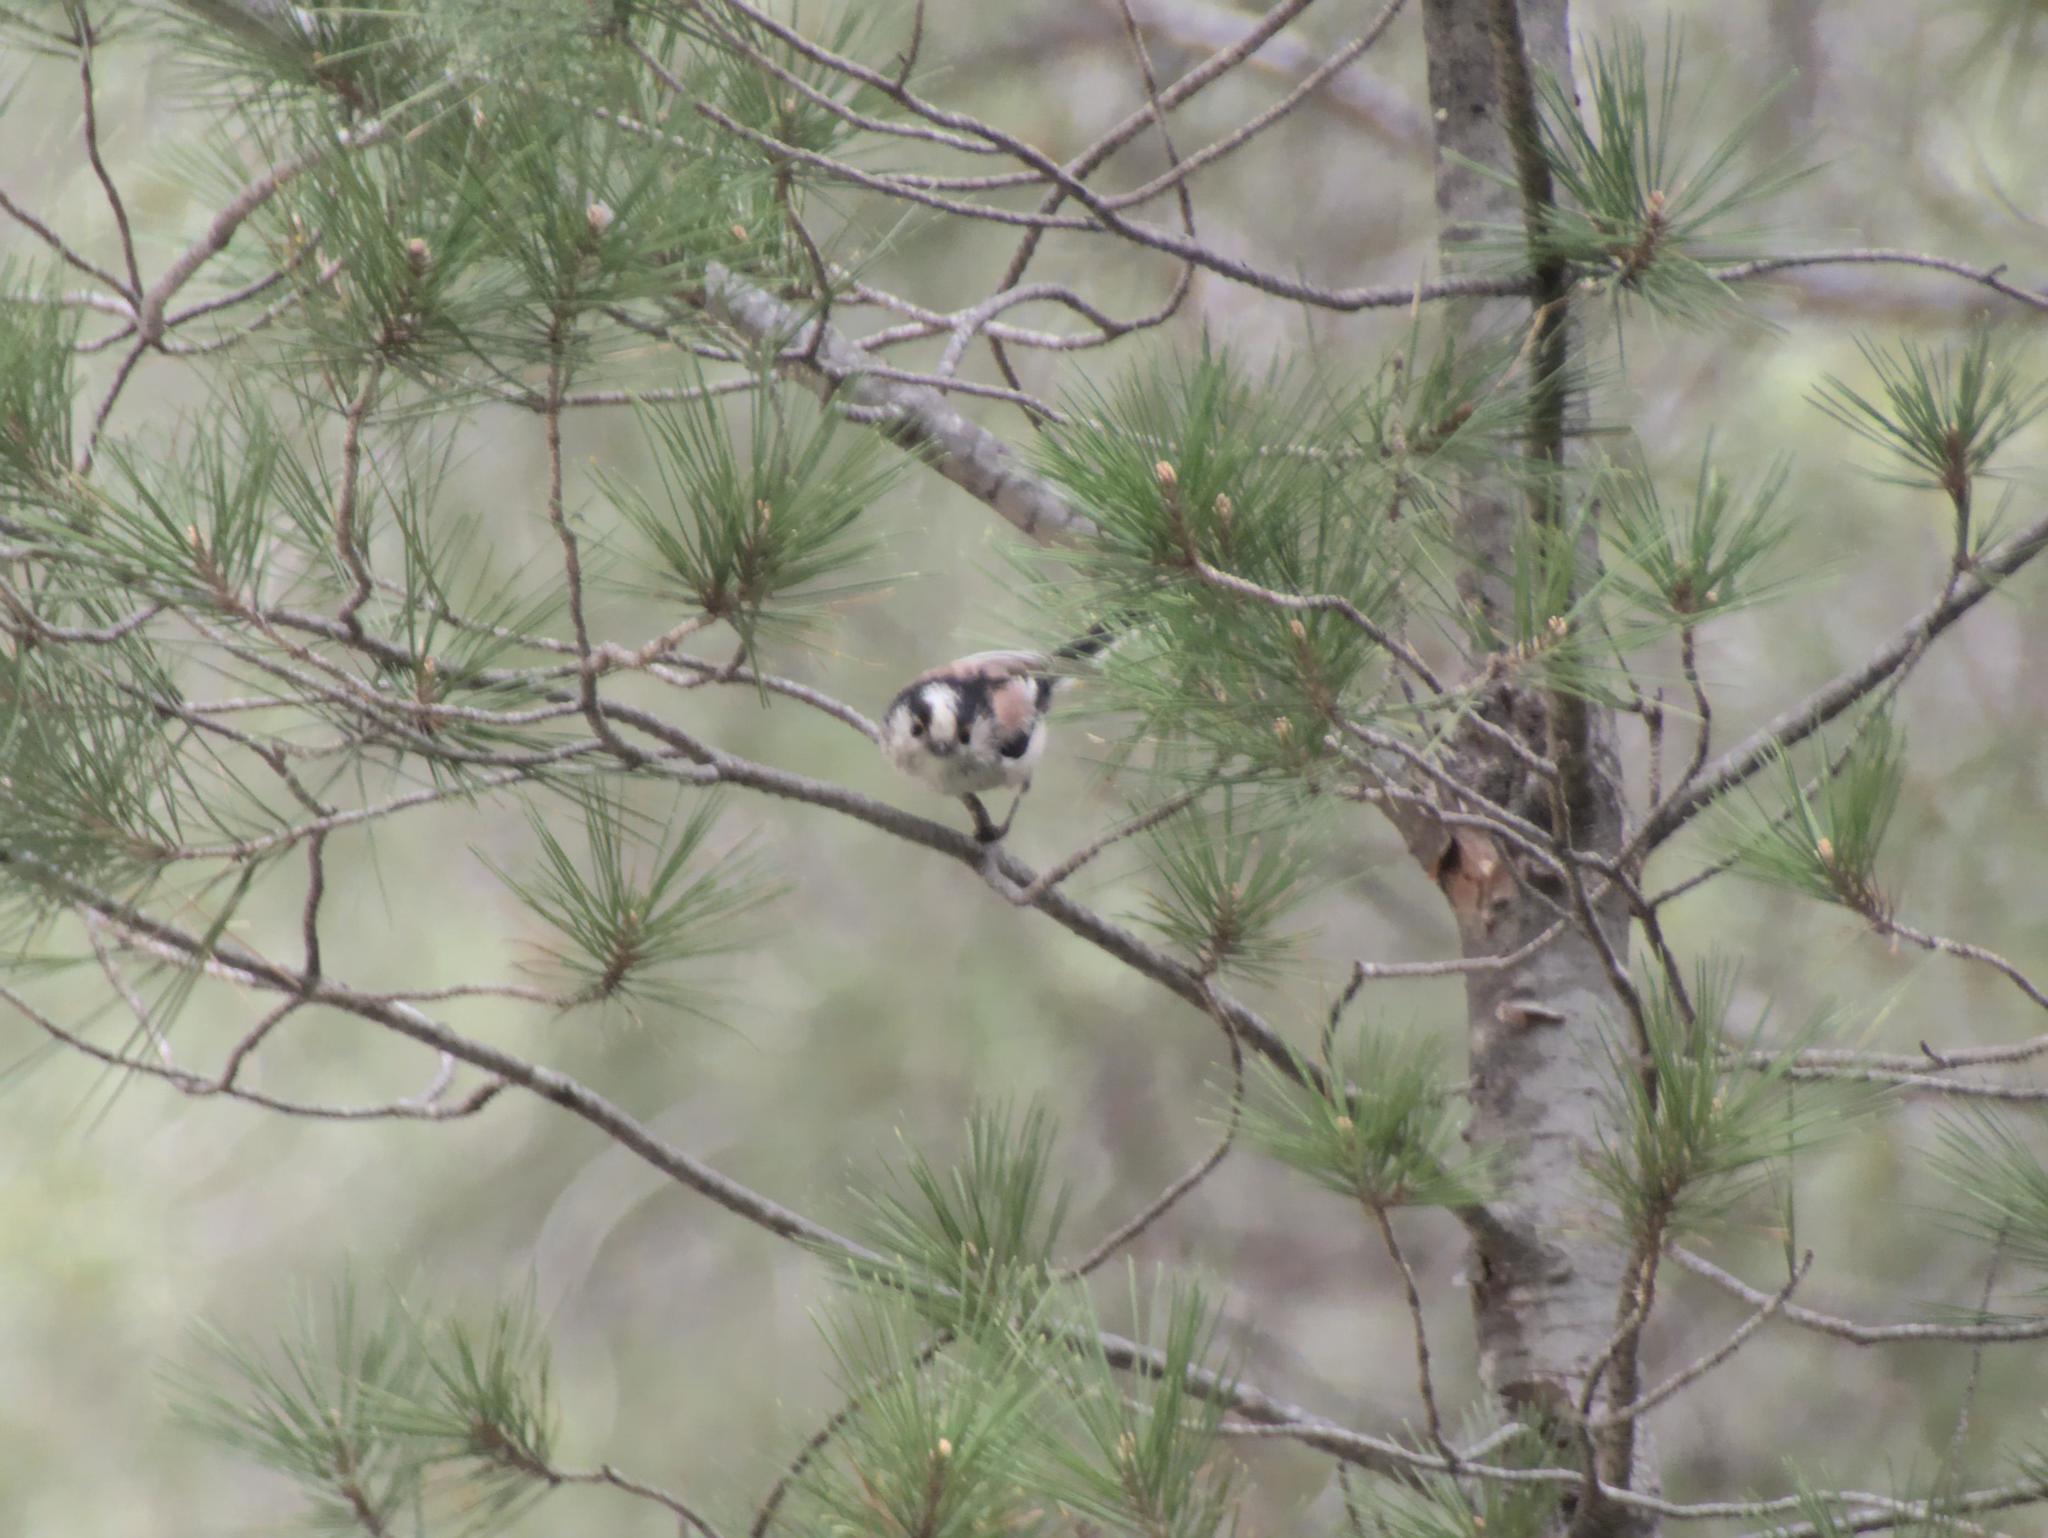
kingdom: Animalia
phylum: Chordata
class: Aves
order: Passeriformes
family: Aegithalidae
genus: Aegithalos
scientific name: Aegithalos caudatus
